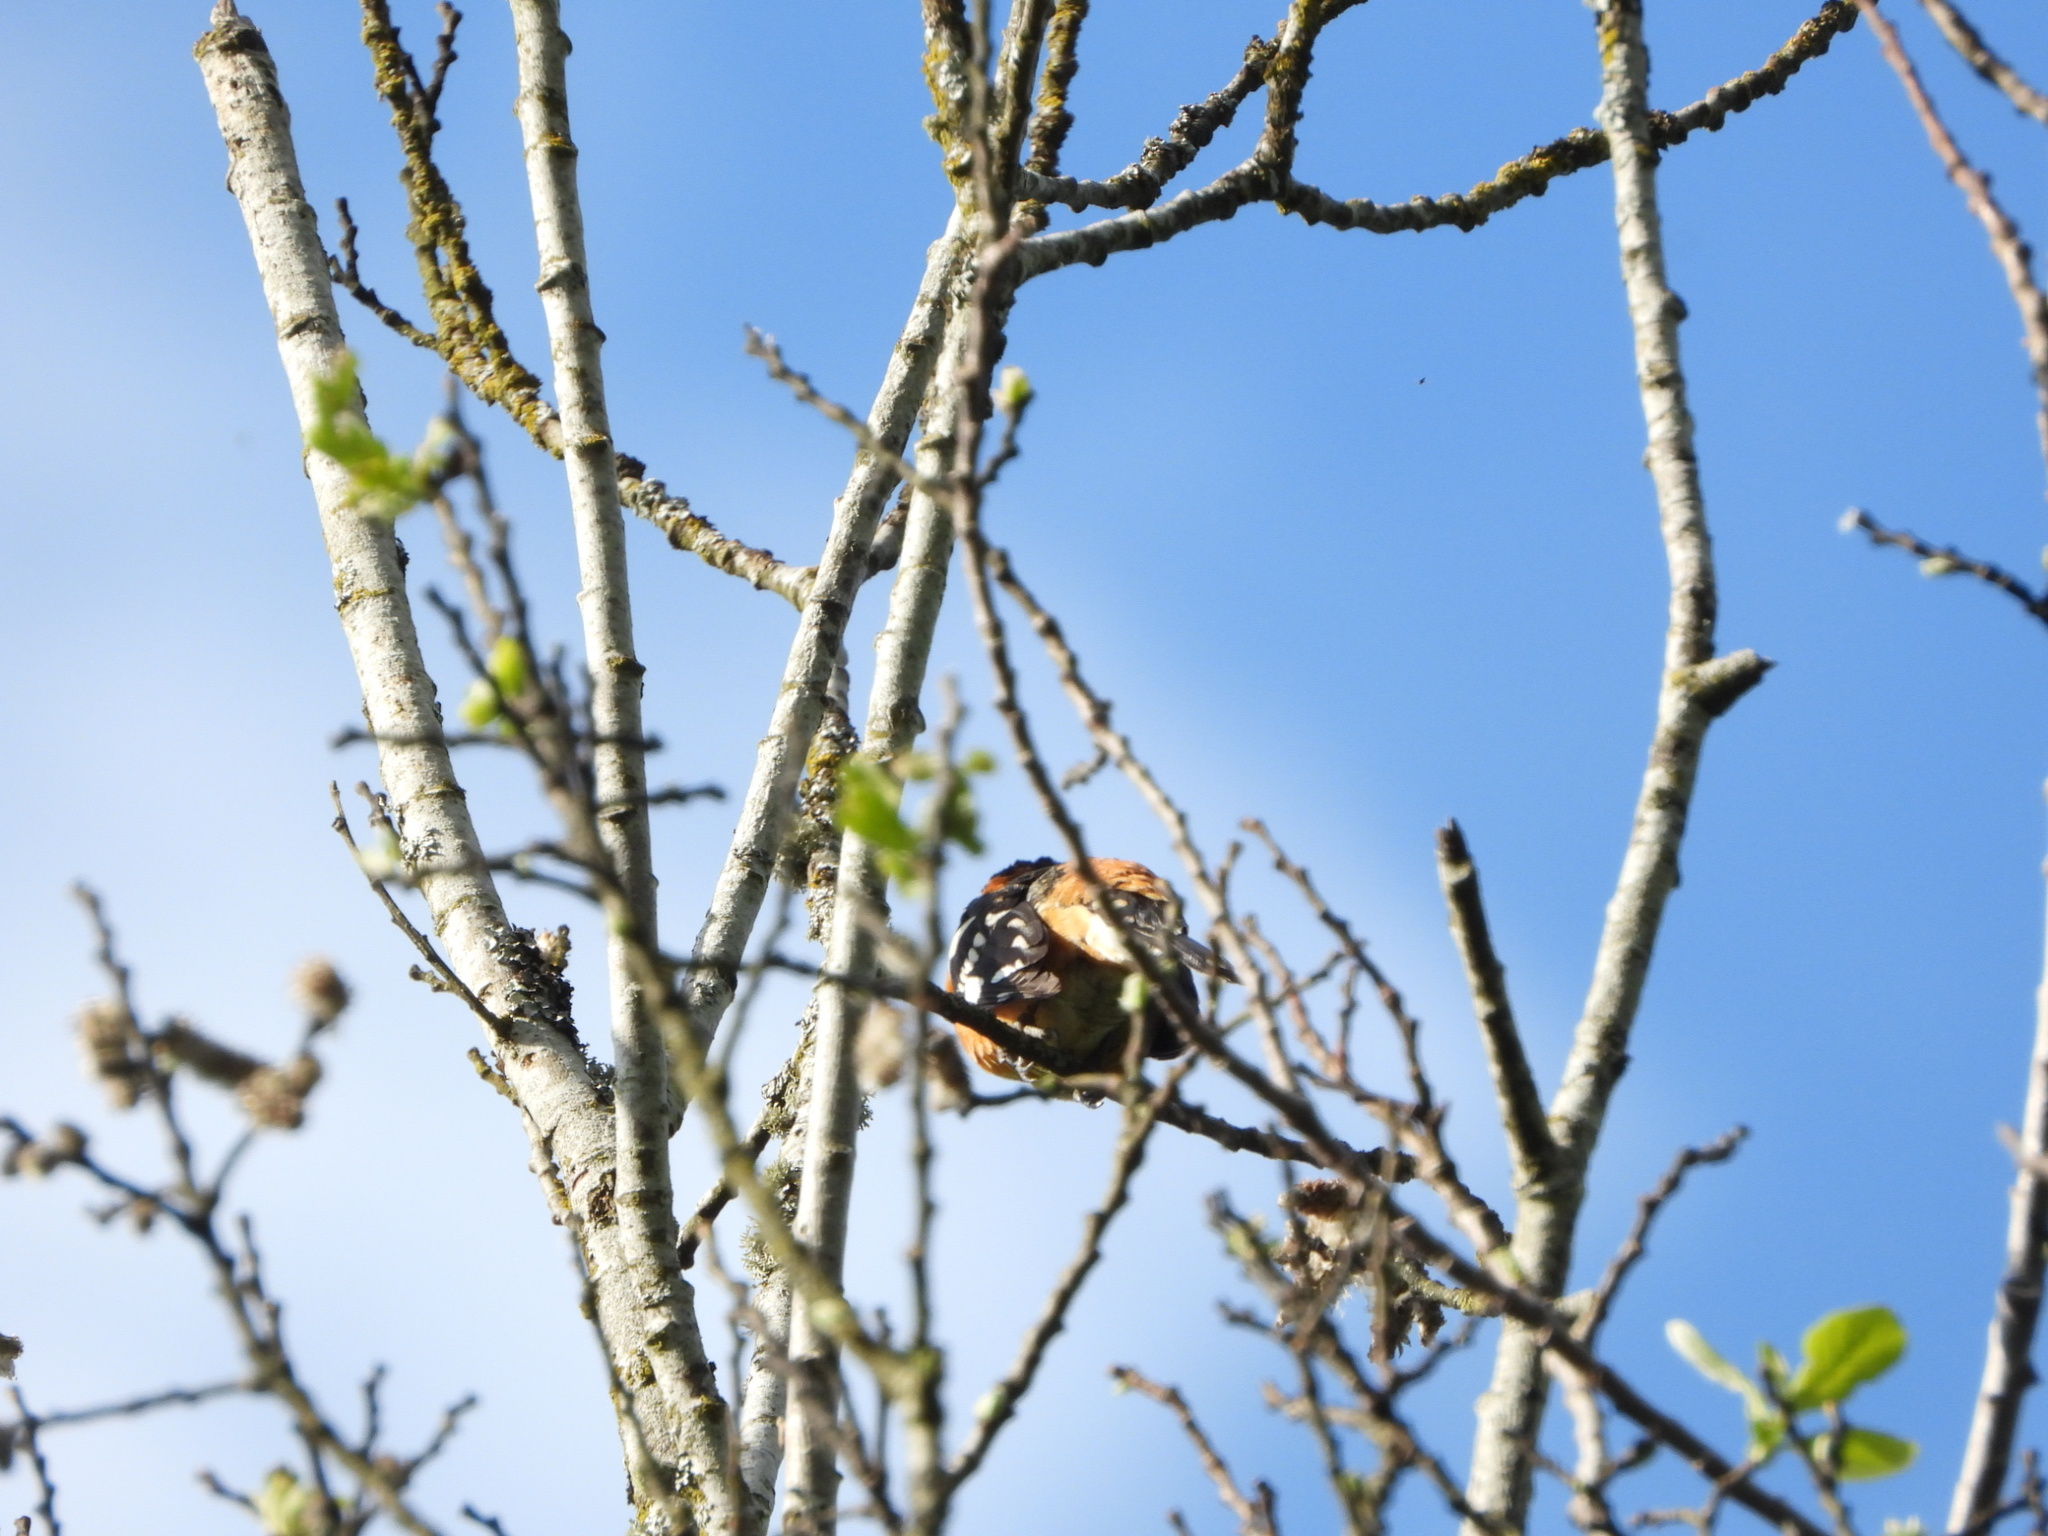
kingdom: Animalia
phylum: Chordata
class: Aves
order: Passeriformes
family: Cardinalidae
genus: Pheucticus
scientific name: Pheucticus melanocephalus
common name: Black-headed grosbeak
